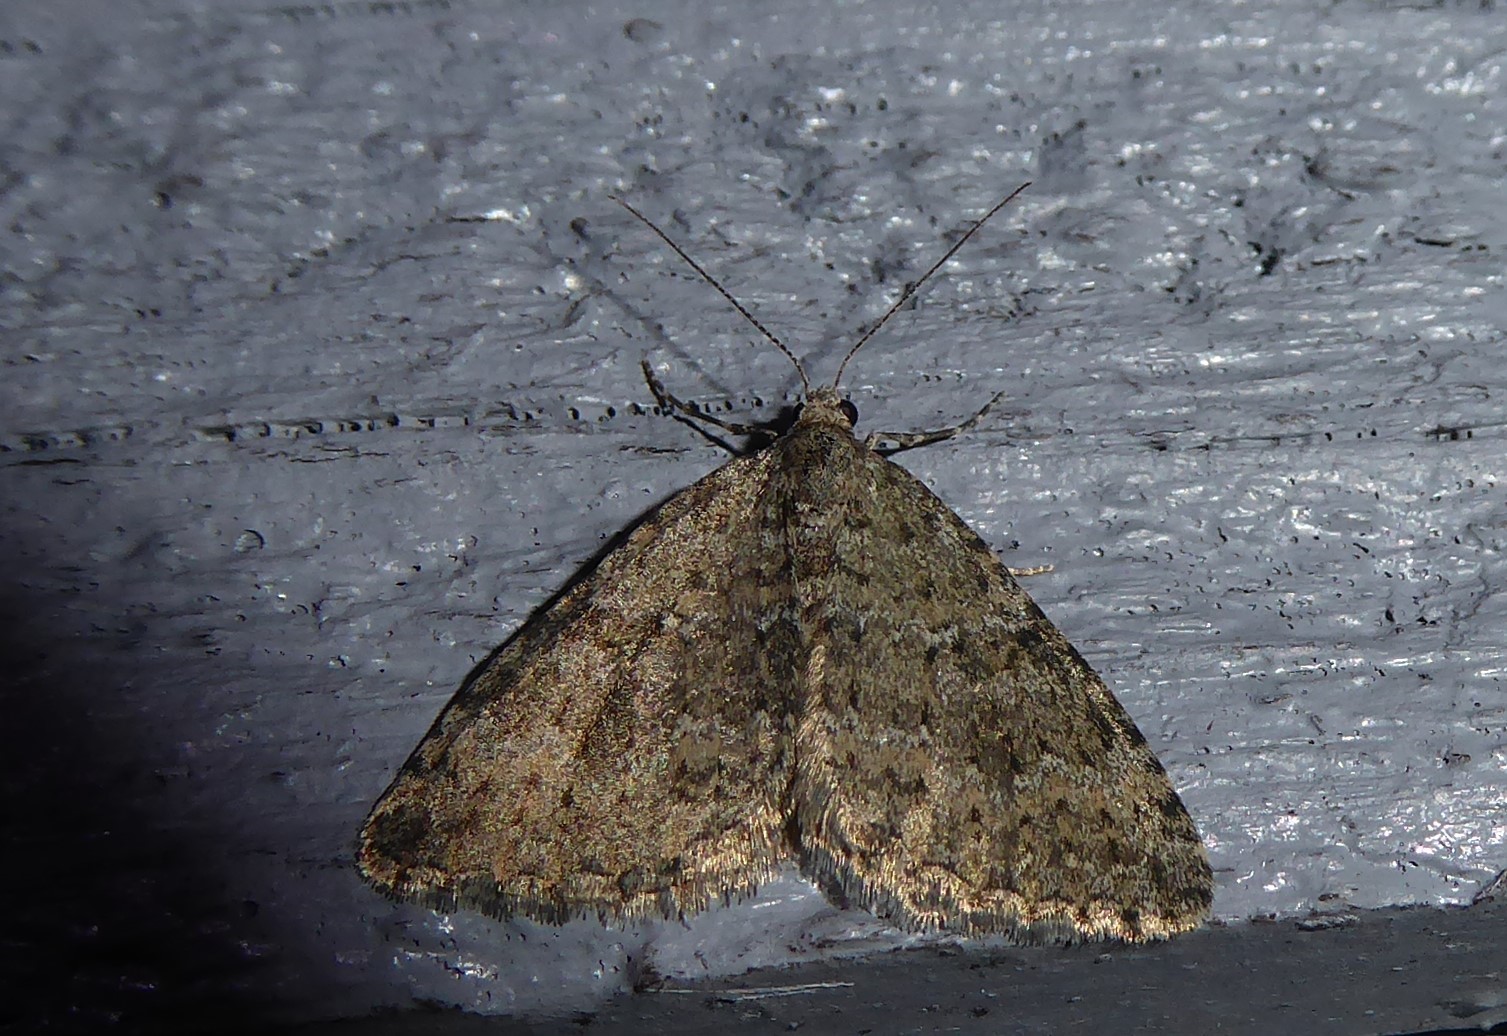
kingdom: Animalia
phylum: Arthropoda
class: Insecta
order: Lepidoptera
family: Geometridae
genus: Helastia
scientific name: Helastia corcularia
